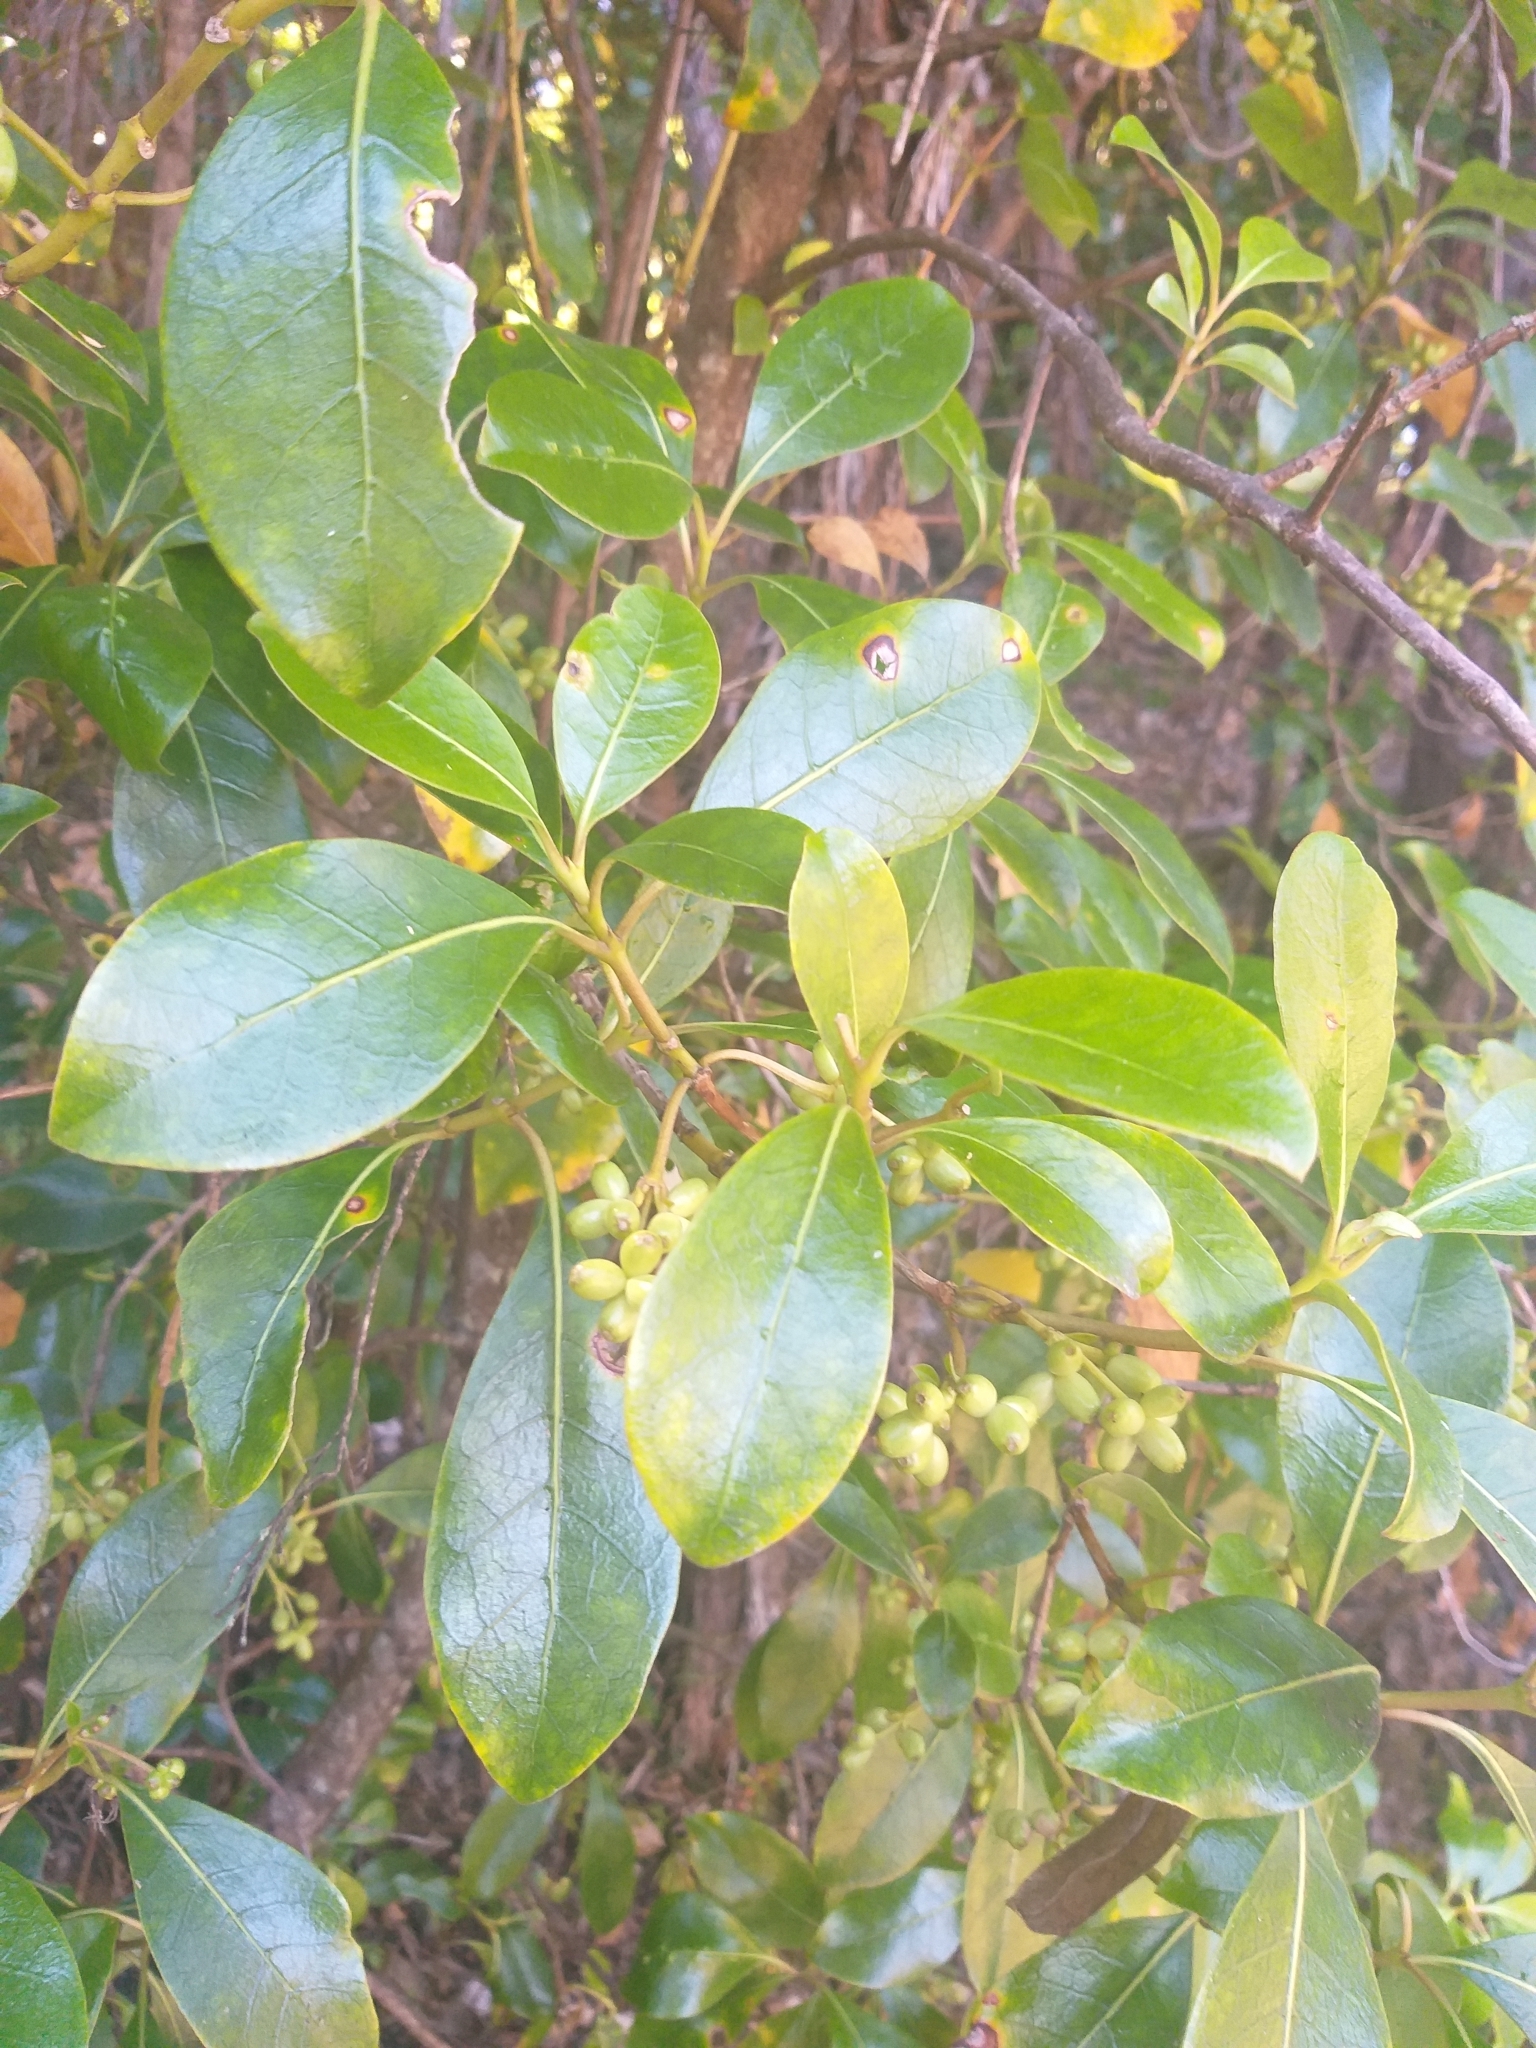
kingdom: Plantae
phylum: Tracheophyta
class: Magnoliopsida
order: Gentianales
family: Rubiaceae
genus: Coprosma
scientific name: Coprosma lucida
